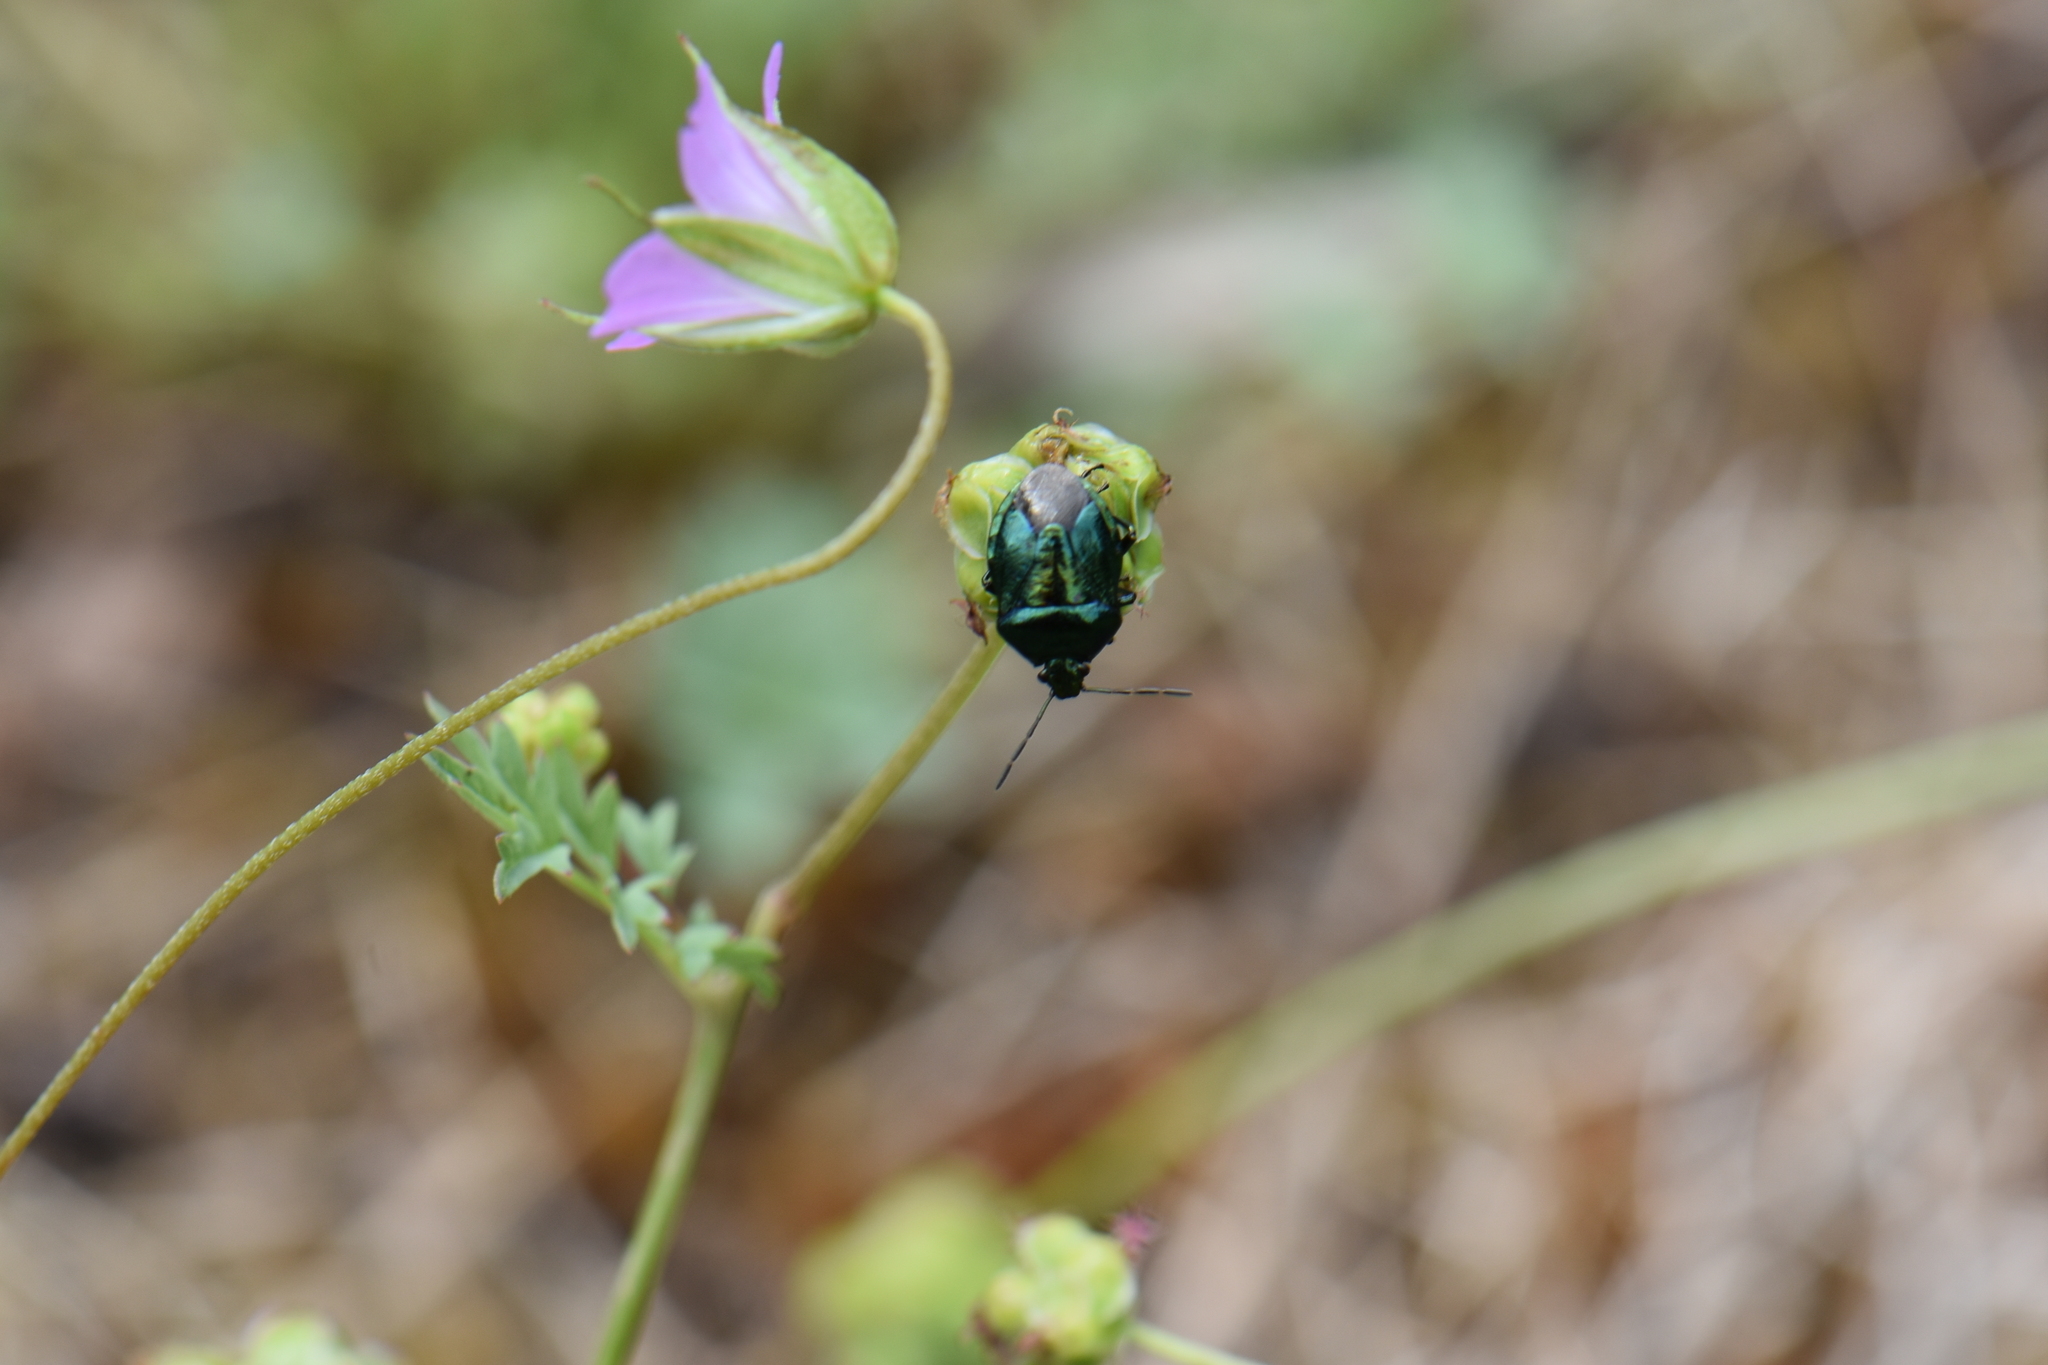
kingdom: Animalia
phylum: Arthropoda
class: Insecta
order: Hemiptera
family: Pentatomidae
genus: Zicrona
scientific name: Zicrona caerulea
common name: Blue shieldbug
